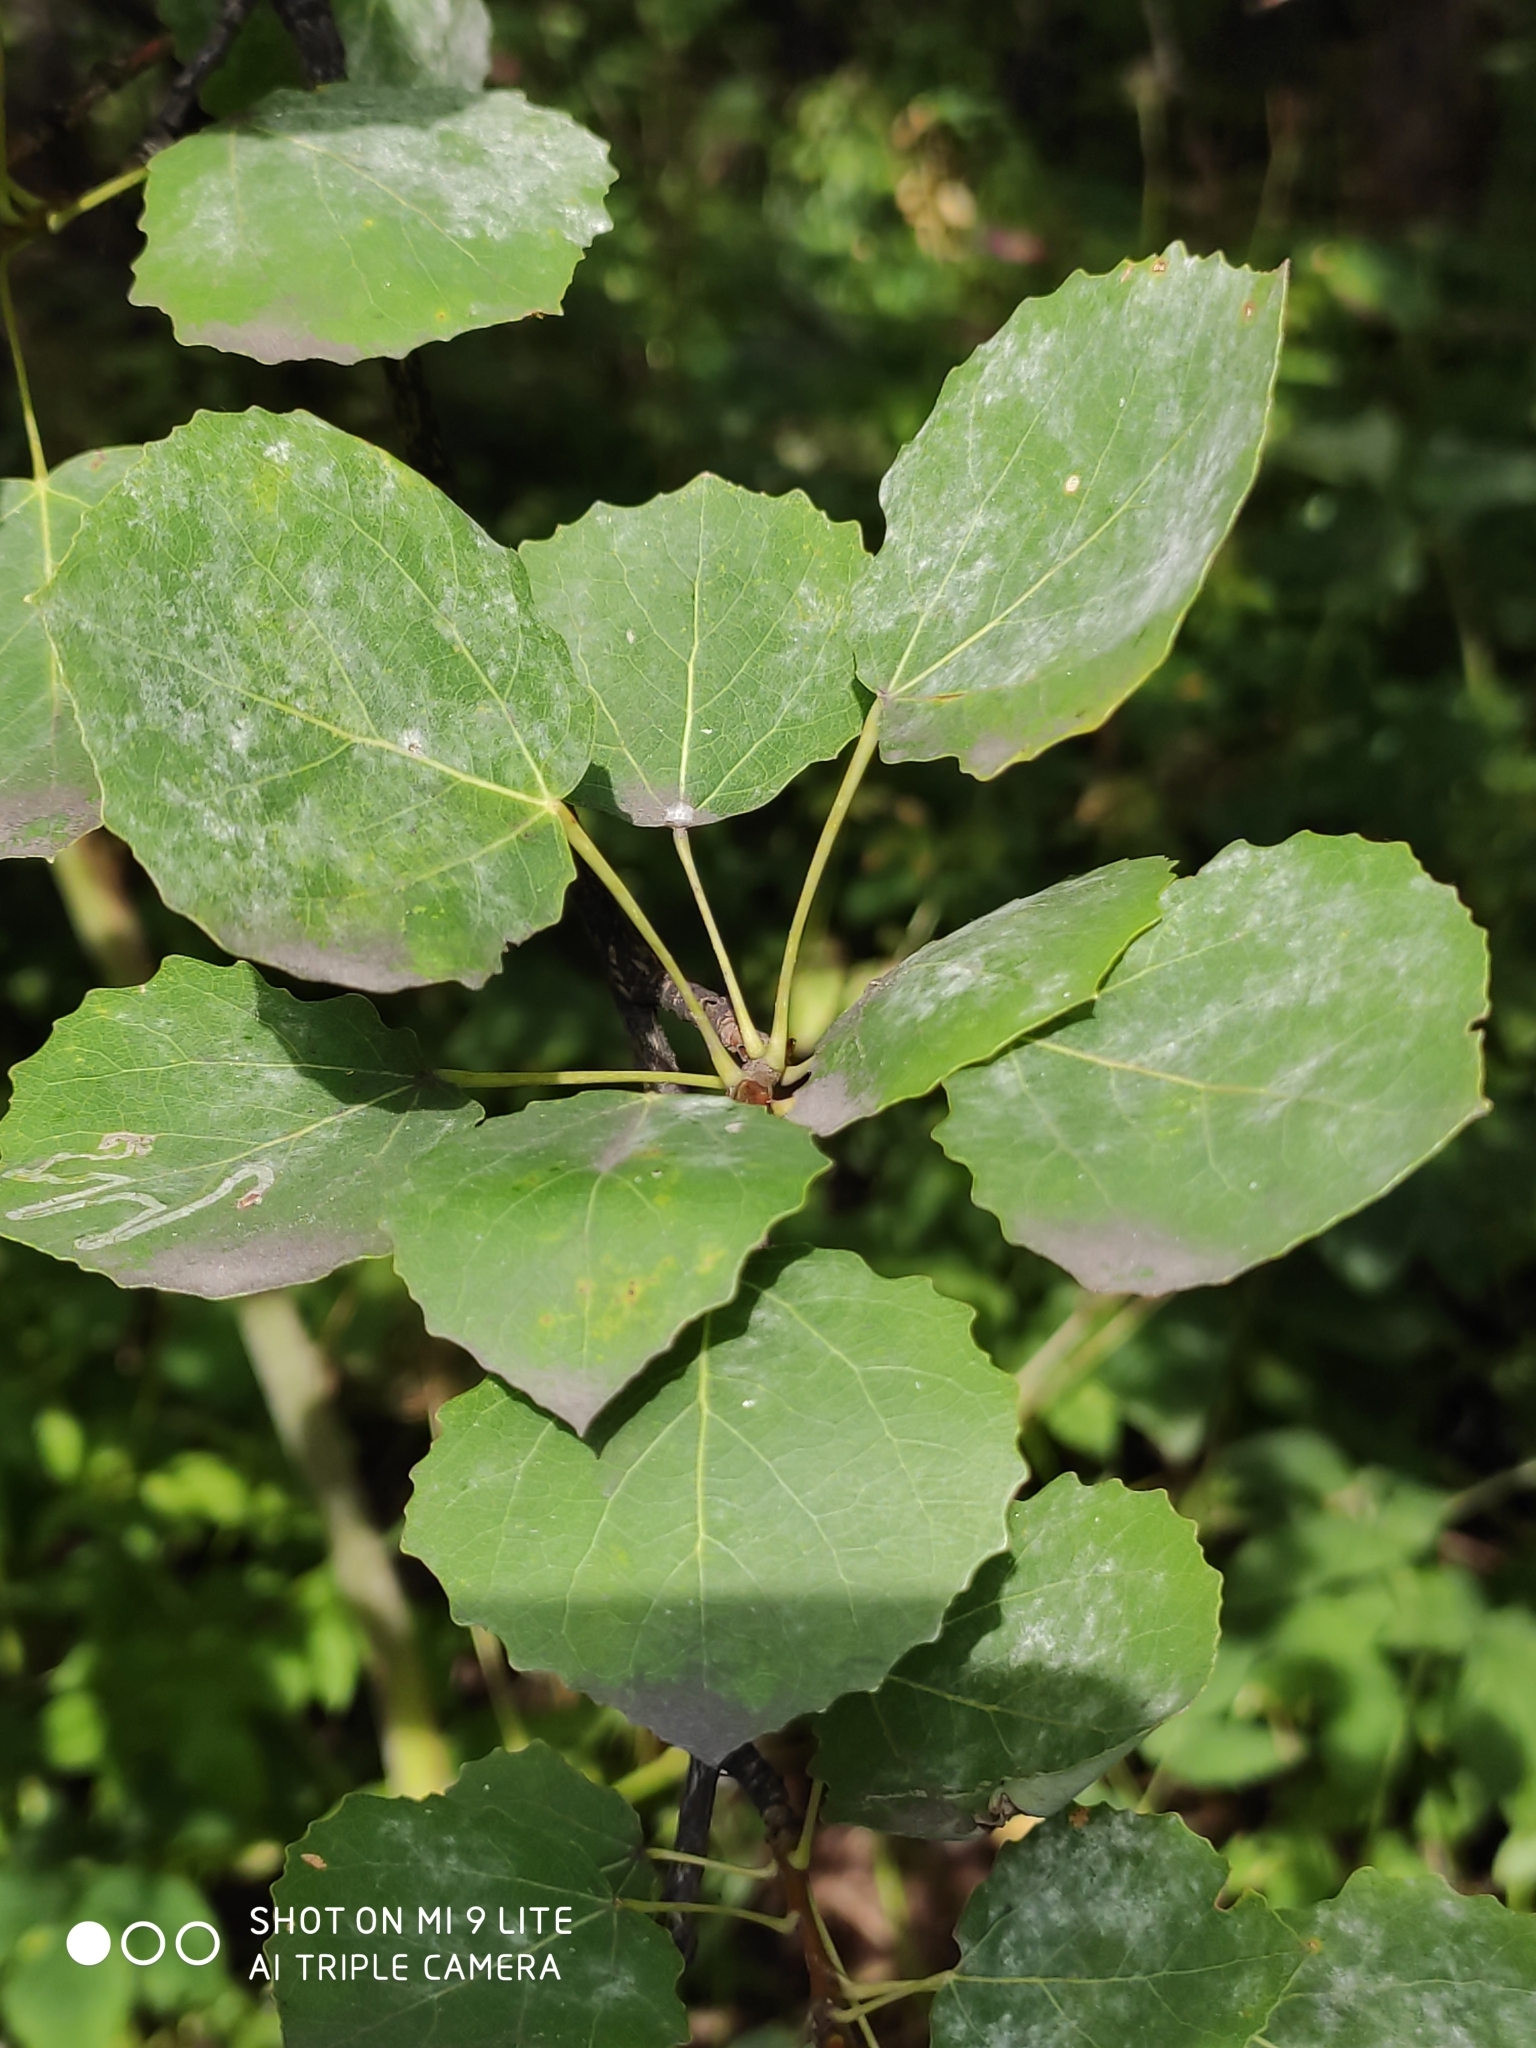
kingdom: Plantae
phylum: Tracheophyta
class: Magnoliopsida
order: Malpighiales
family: Salicaceae
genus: Populus
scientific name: Populus tremula
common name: European aspen
